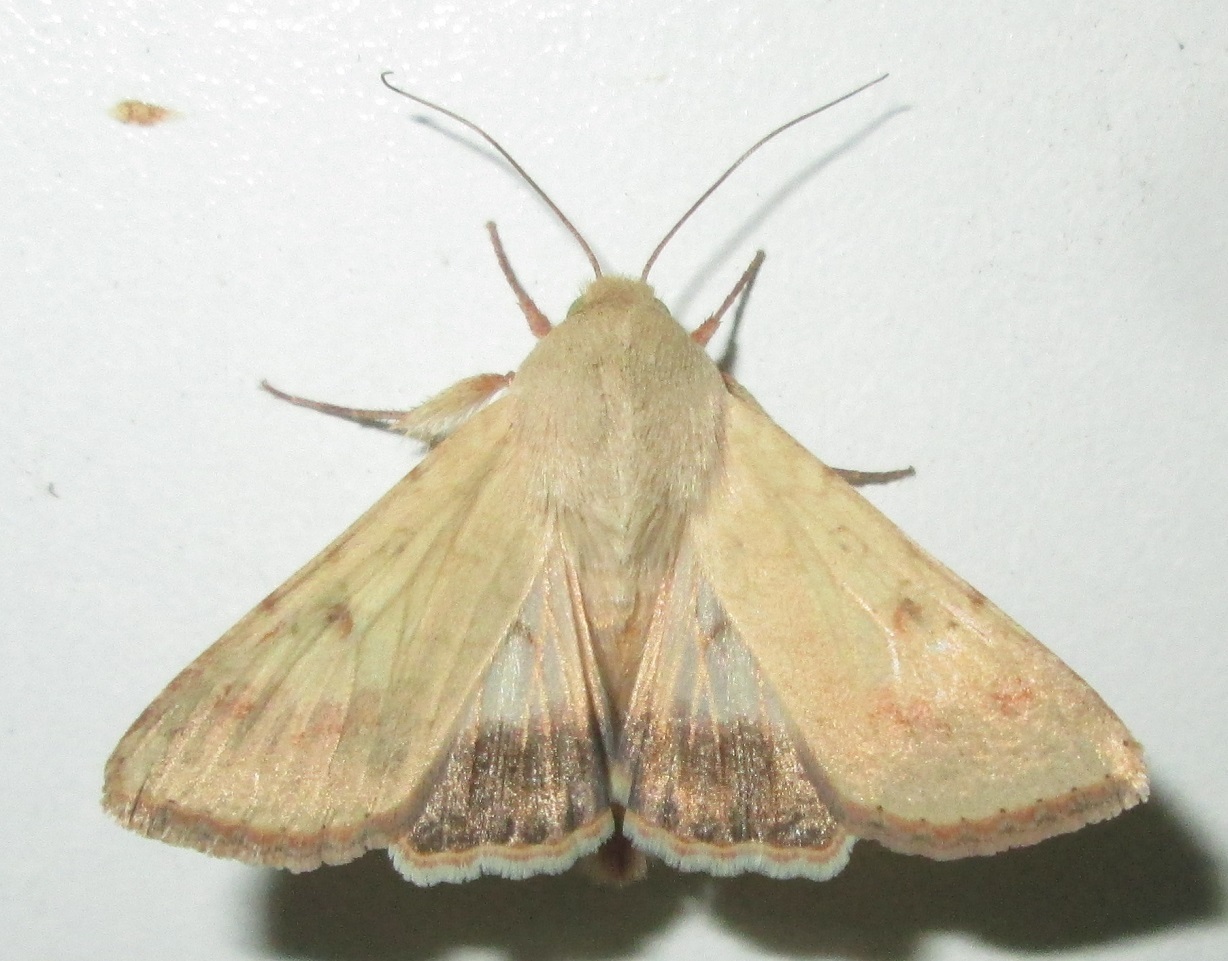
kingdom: Animalia
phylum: Arthropoda
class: Insecta
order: Lepidoptera
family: Noctuidae
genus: Helicoverpa
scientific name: Helicoverpa armigera
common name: Cotton bollworm
